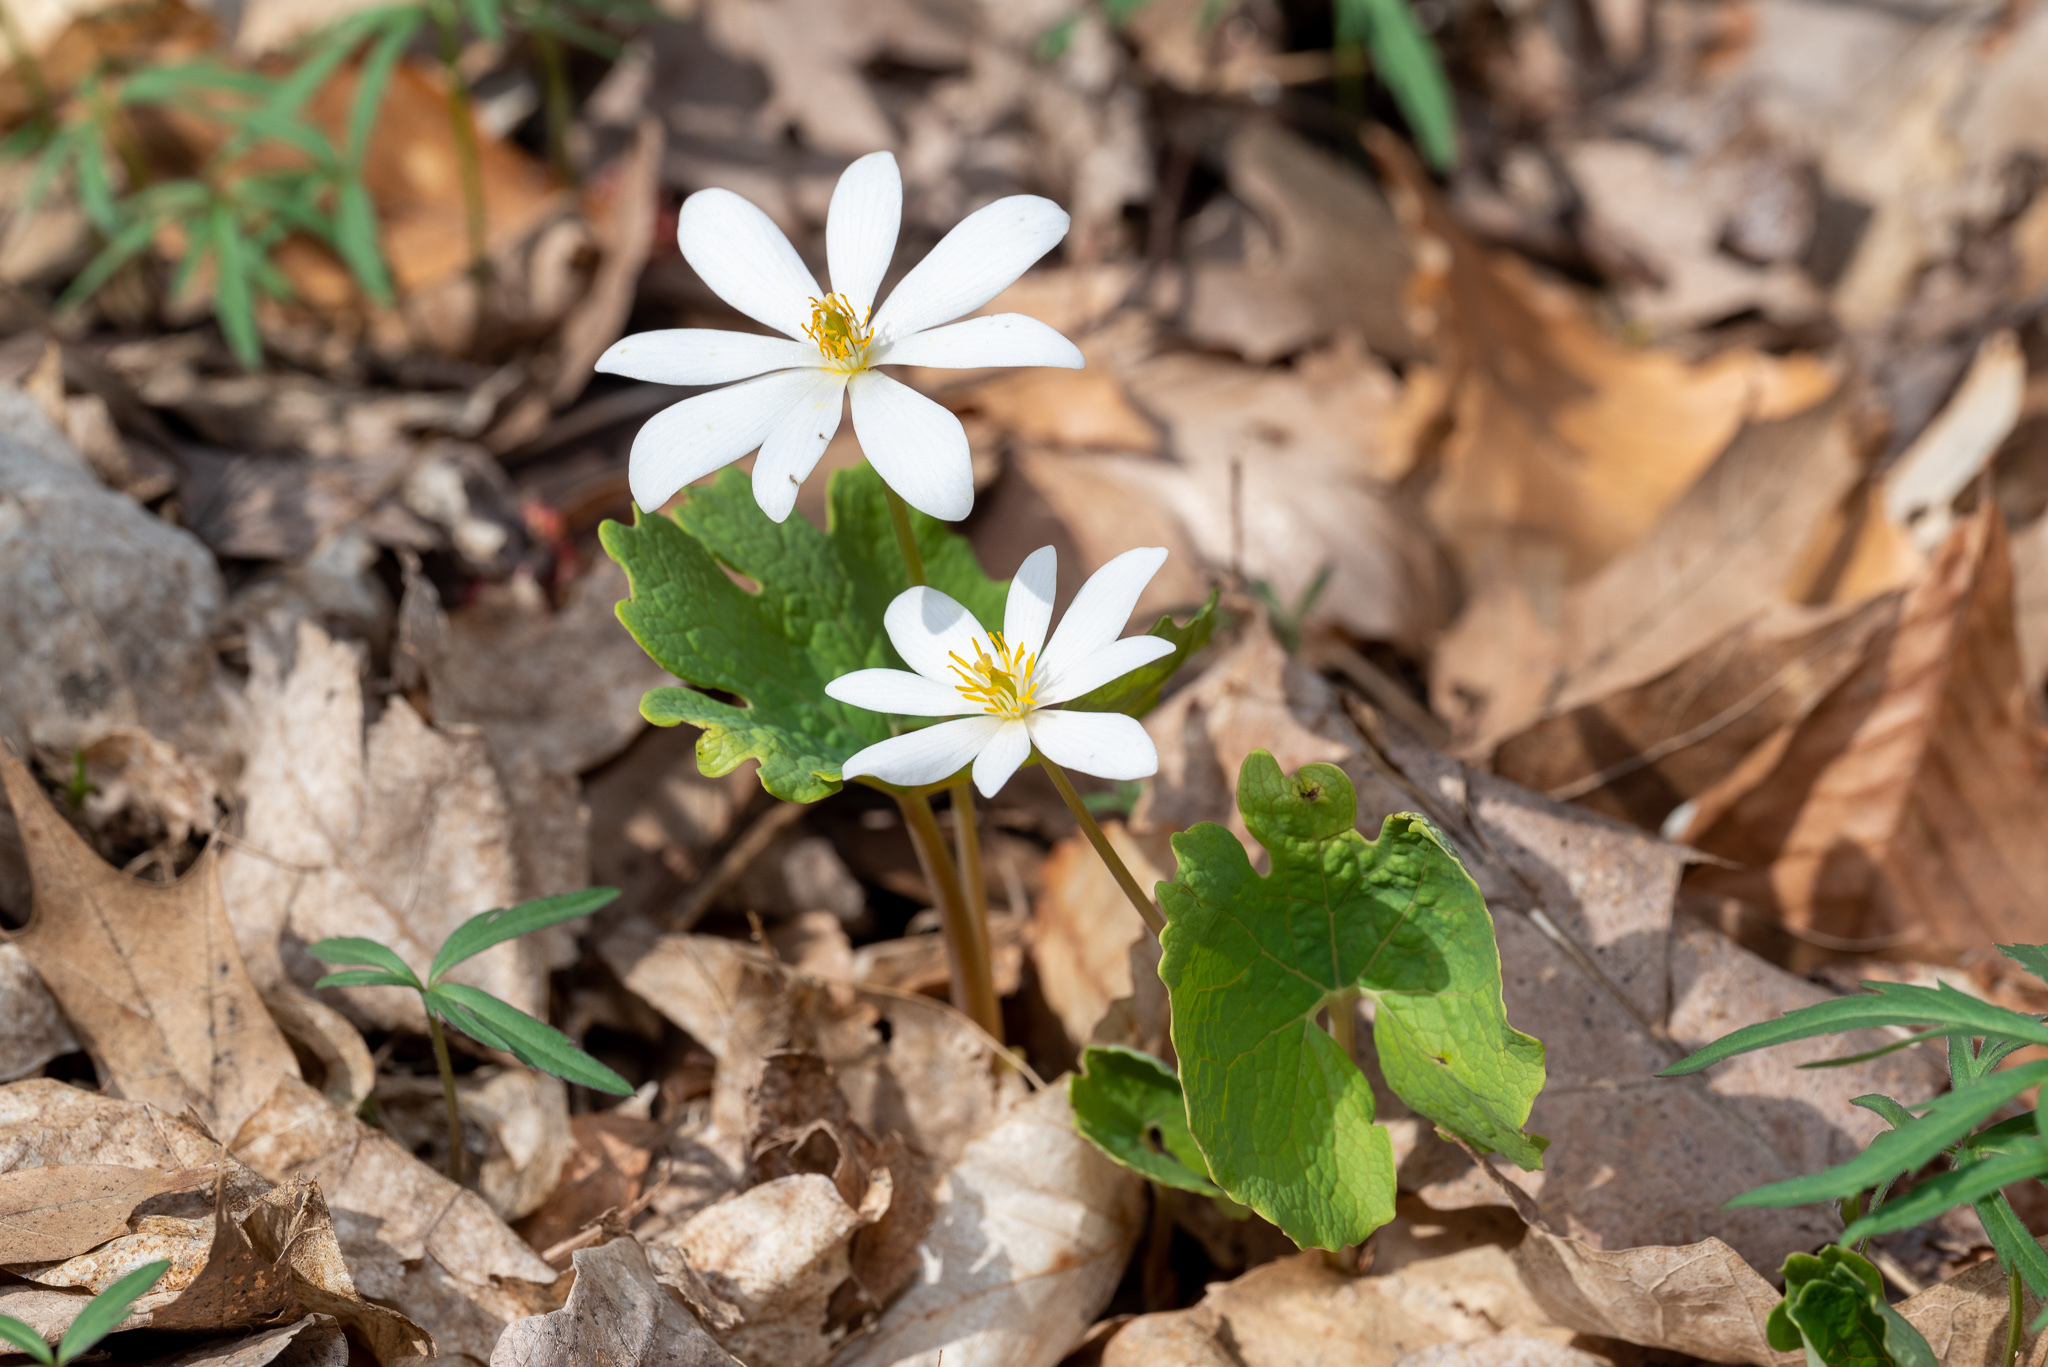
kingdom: Plantae
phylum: Tracheophyta
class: Magnoliopsida
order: Ranunculales
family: Papaveraceae
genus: Sanguinaria
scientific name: Sanguinaria canadensis
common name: Bloodroot
